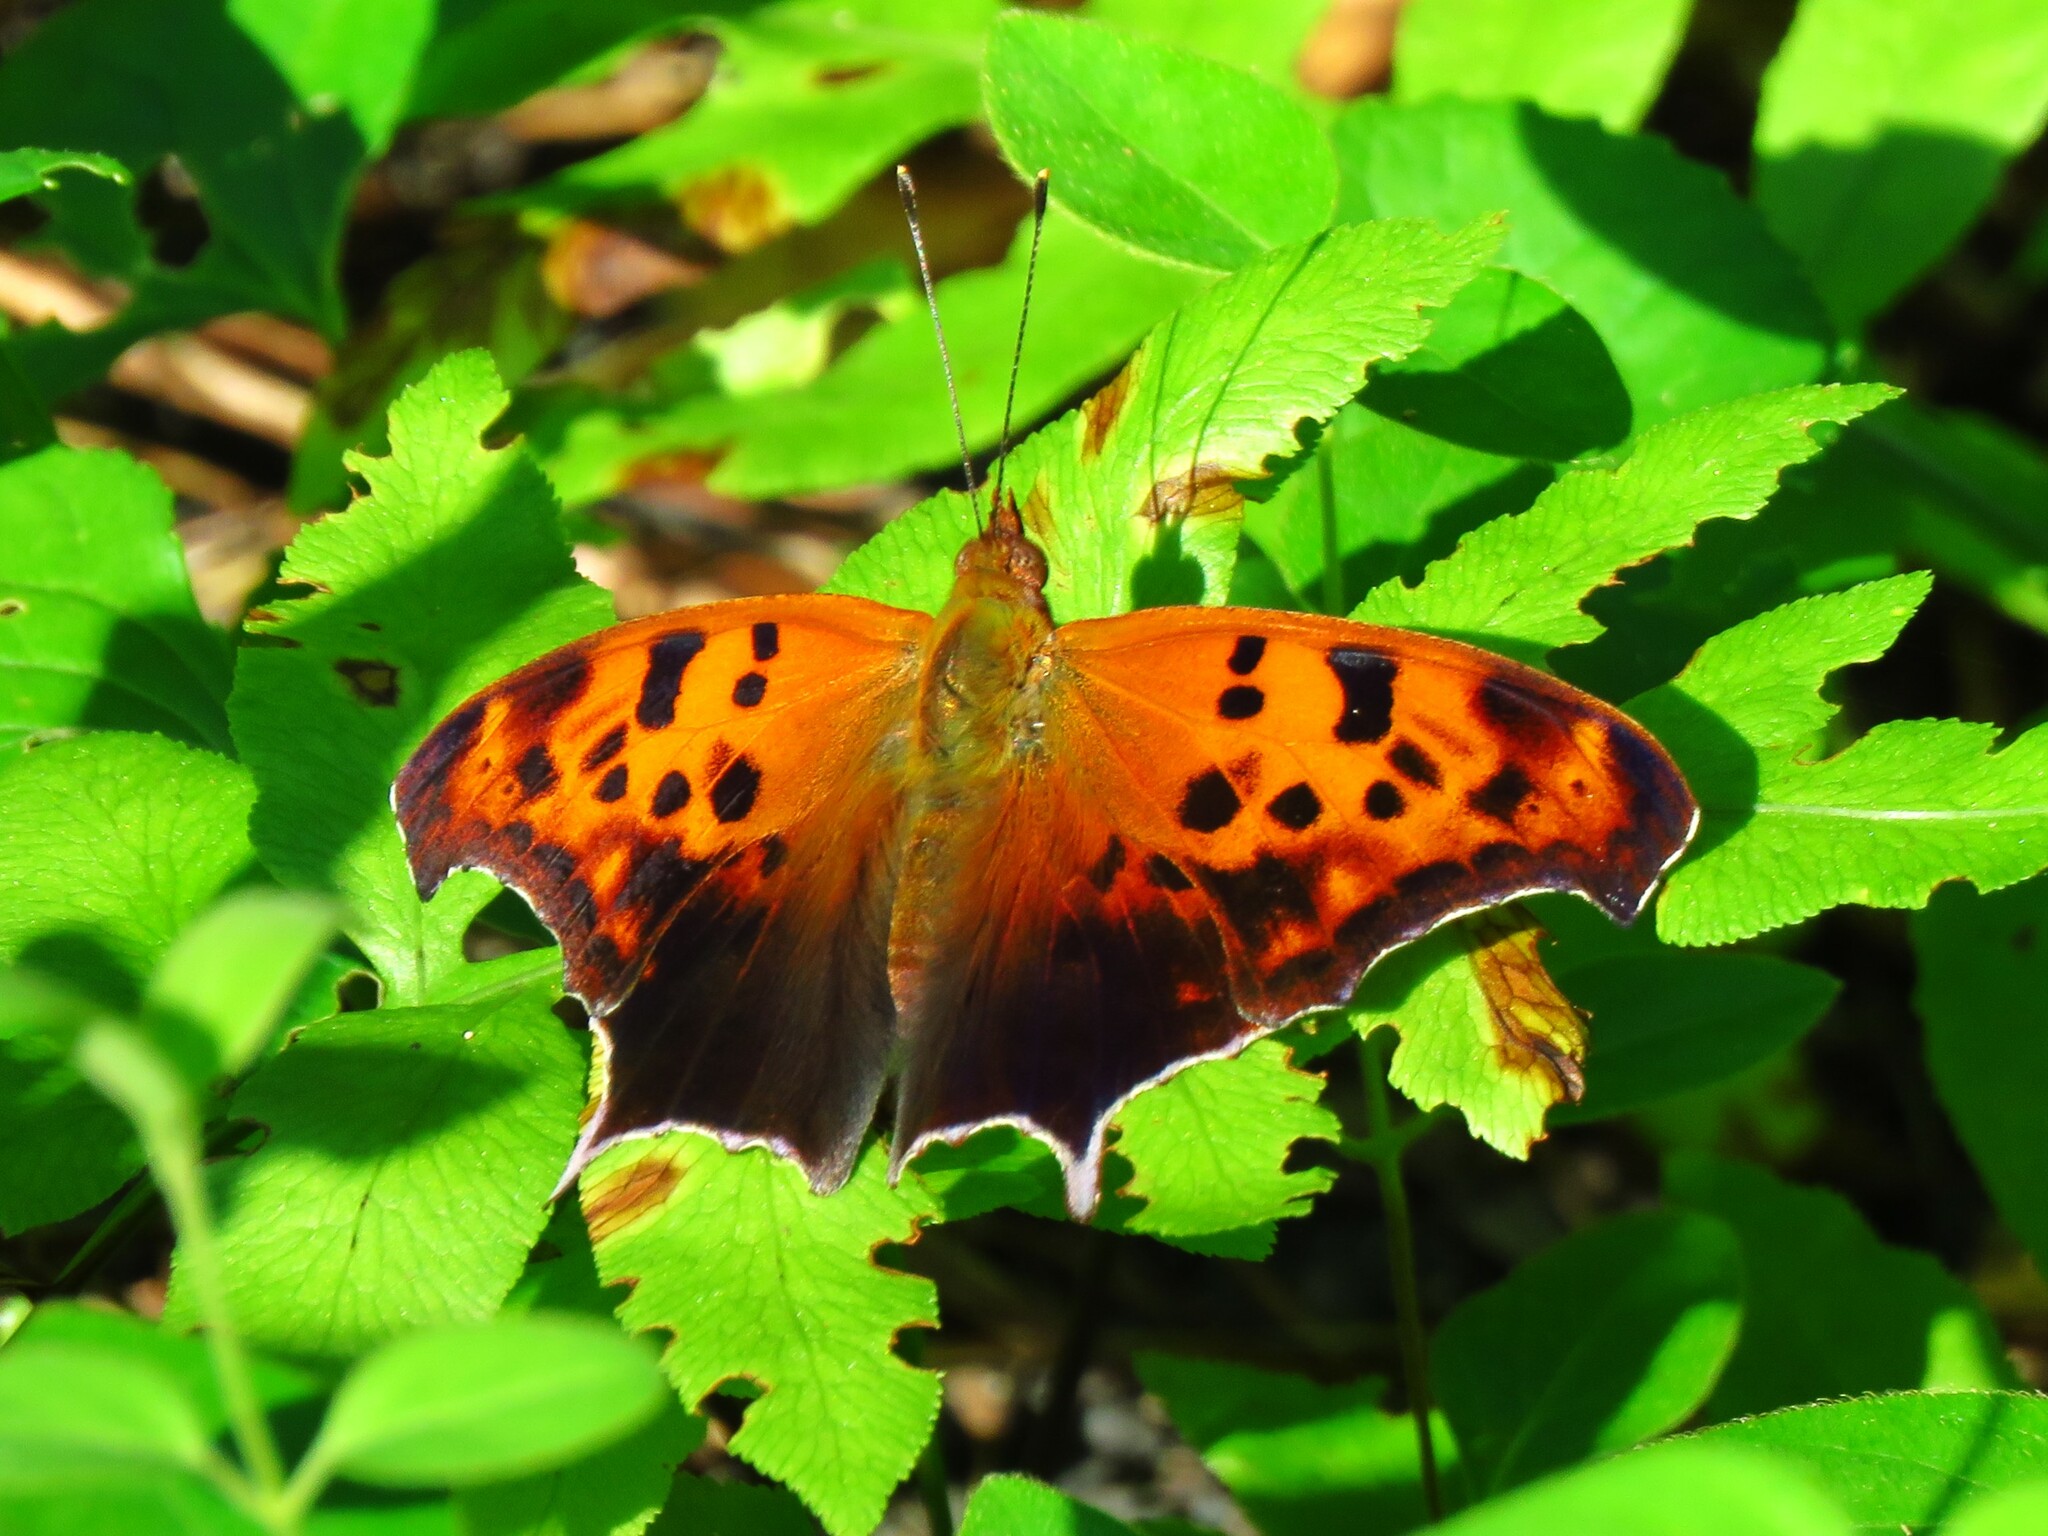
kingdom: Animalia
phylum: Arthropoda
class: Insecta
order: Lepidoptera
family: Nymphalidae
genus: Polygonia
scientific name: Polygonia interrogationis
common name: Question mark
